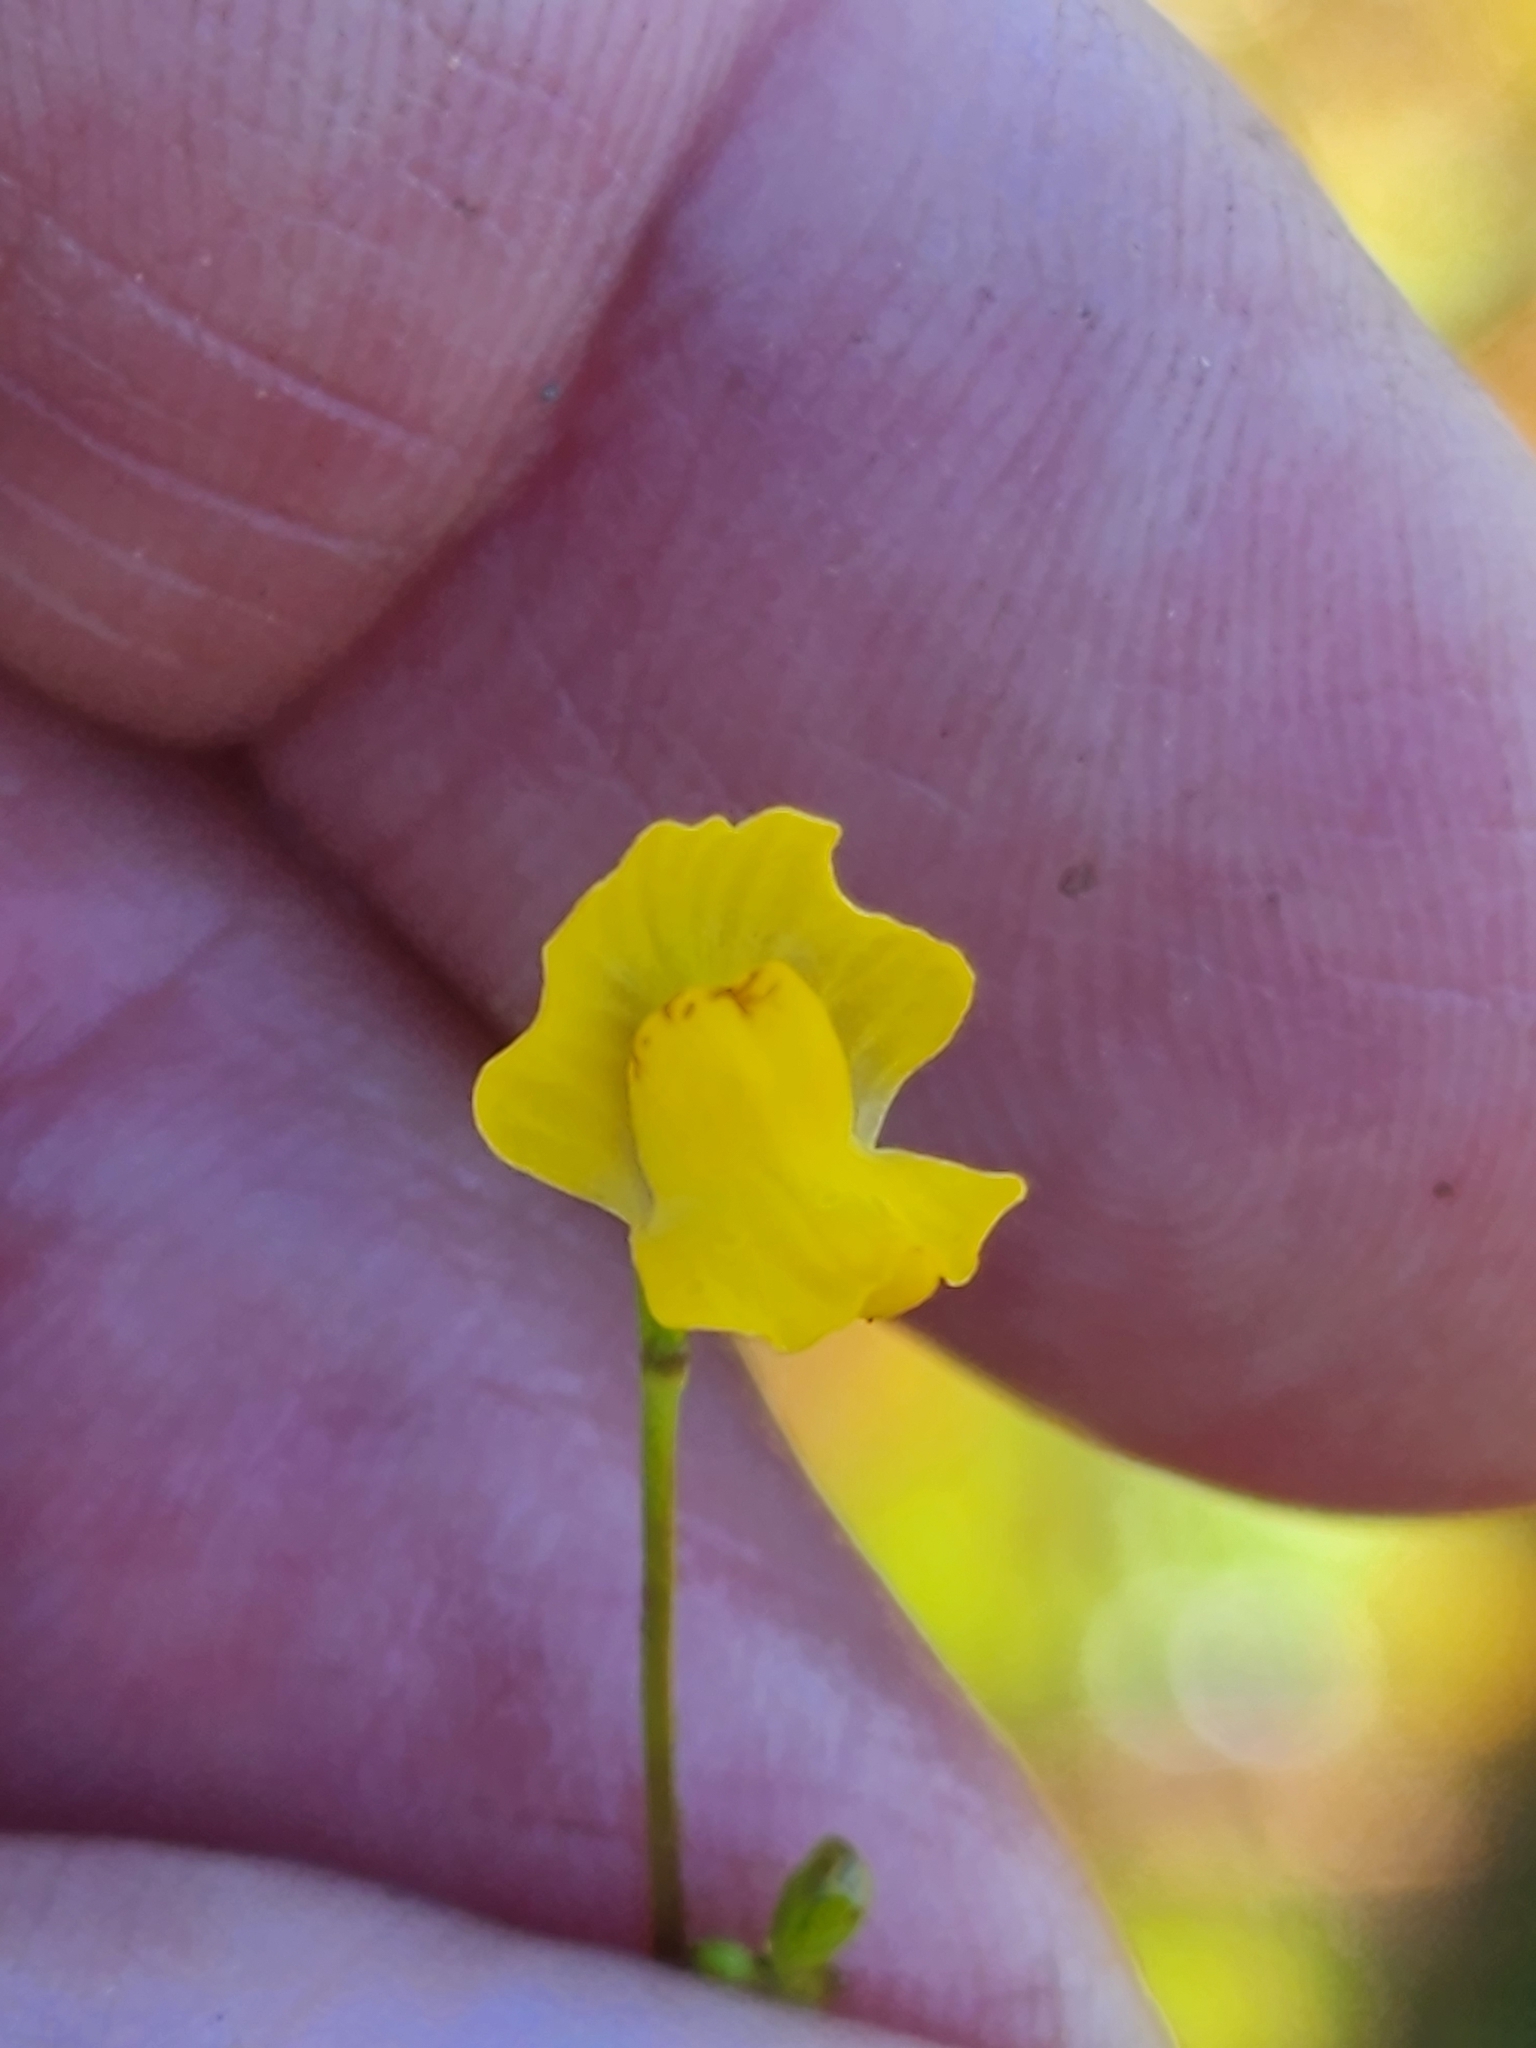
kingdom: Plantae
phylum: Tracheophyta
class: Magnoliopsida
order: Lamiales
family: Lentibulariaceae
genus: Utricularia
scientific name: Utricularia gibba
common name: Humped bladderwort
